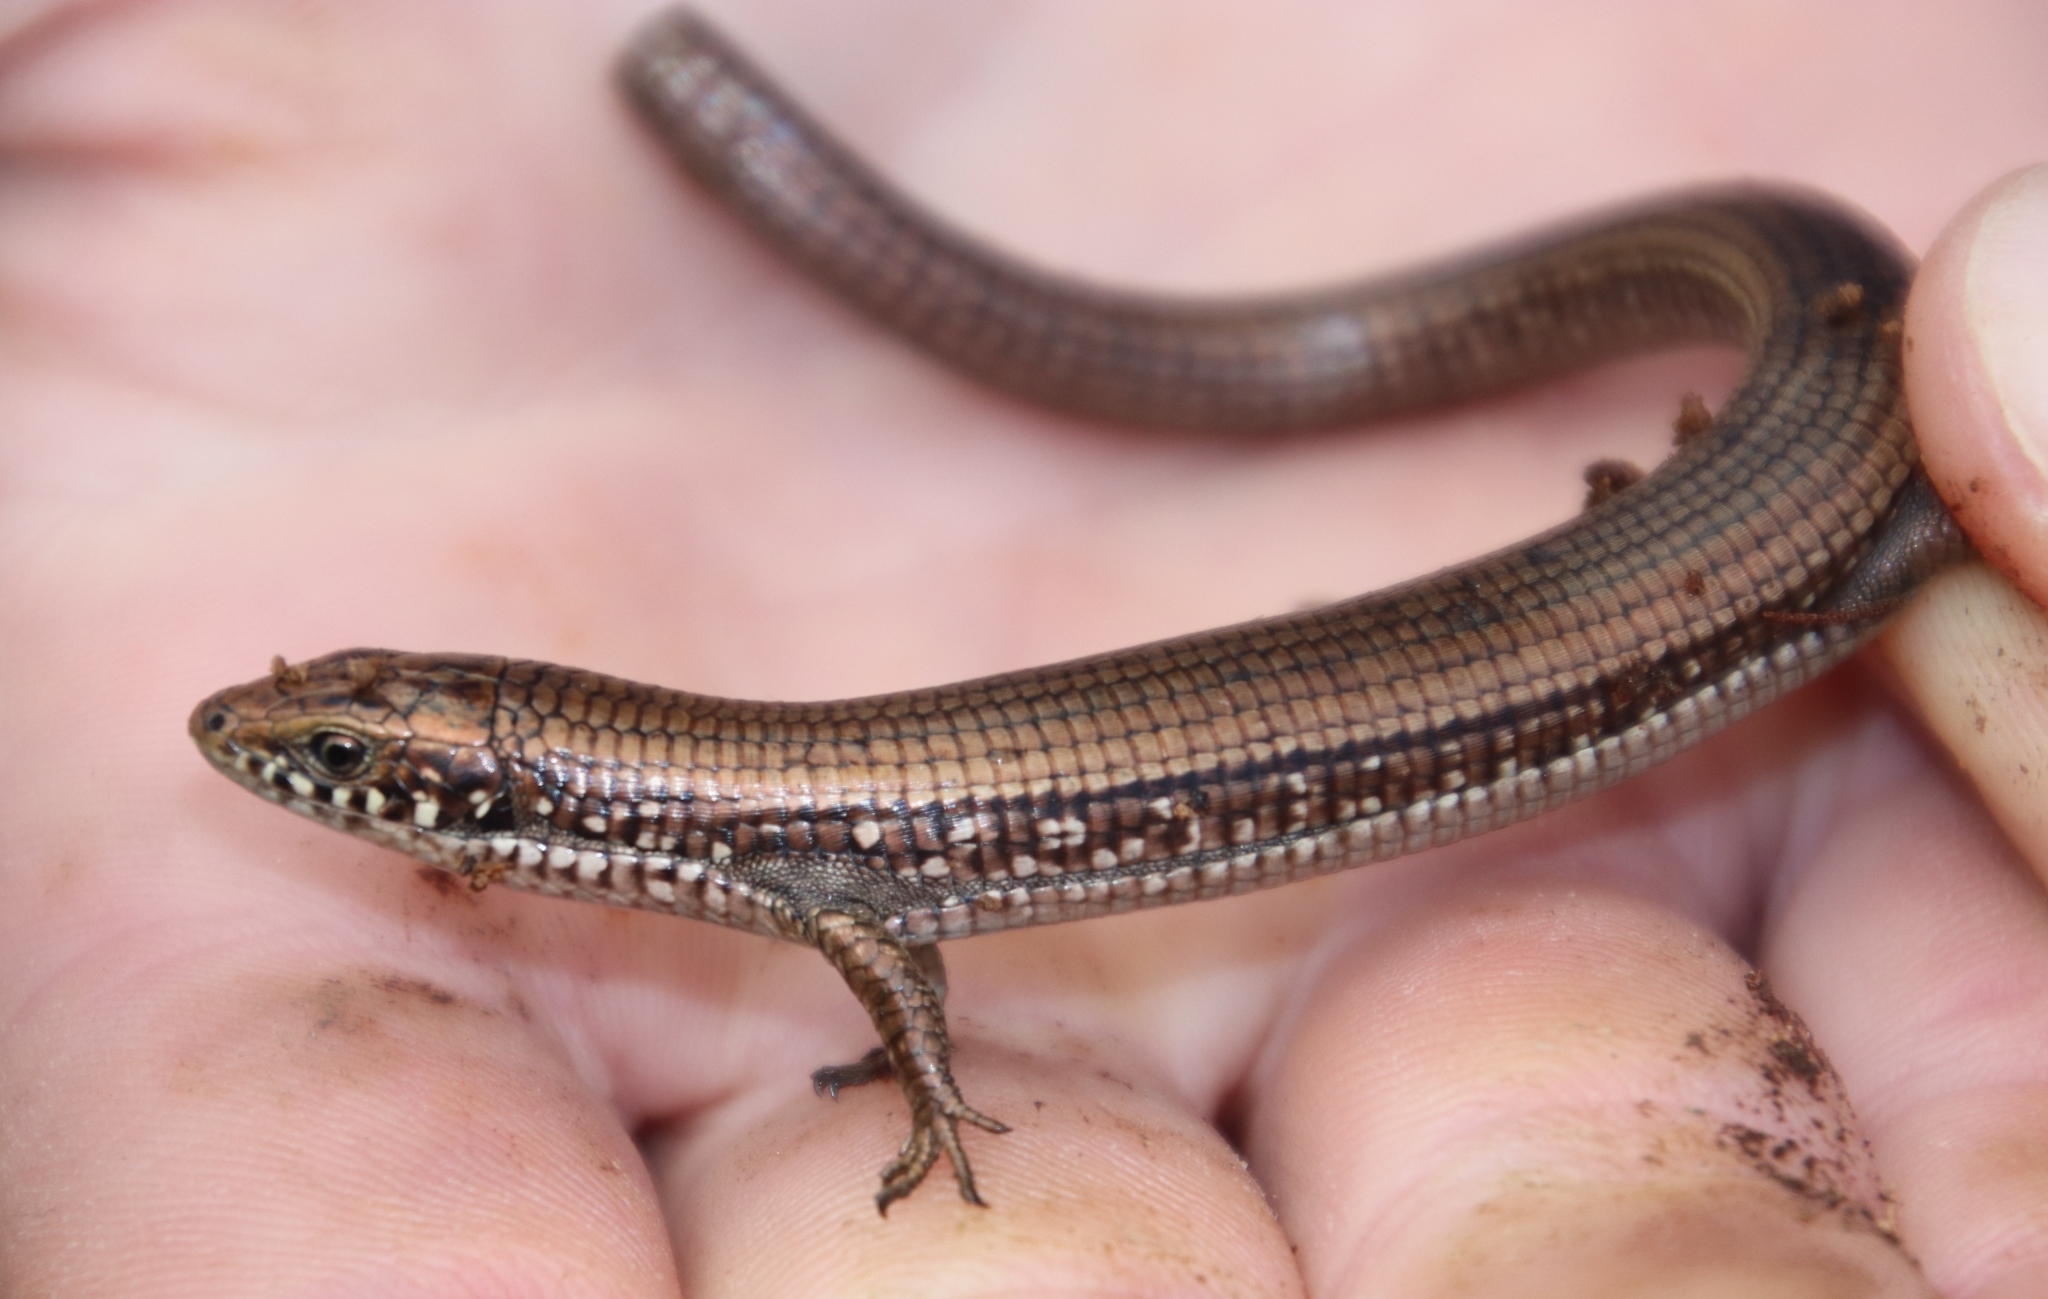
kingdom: Animalia
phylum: Chordata
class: Squamata
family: Gerrhosauridae
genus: Tetradactylus
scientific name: Tetradactylus seps
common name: Five-toed whip lizard
